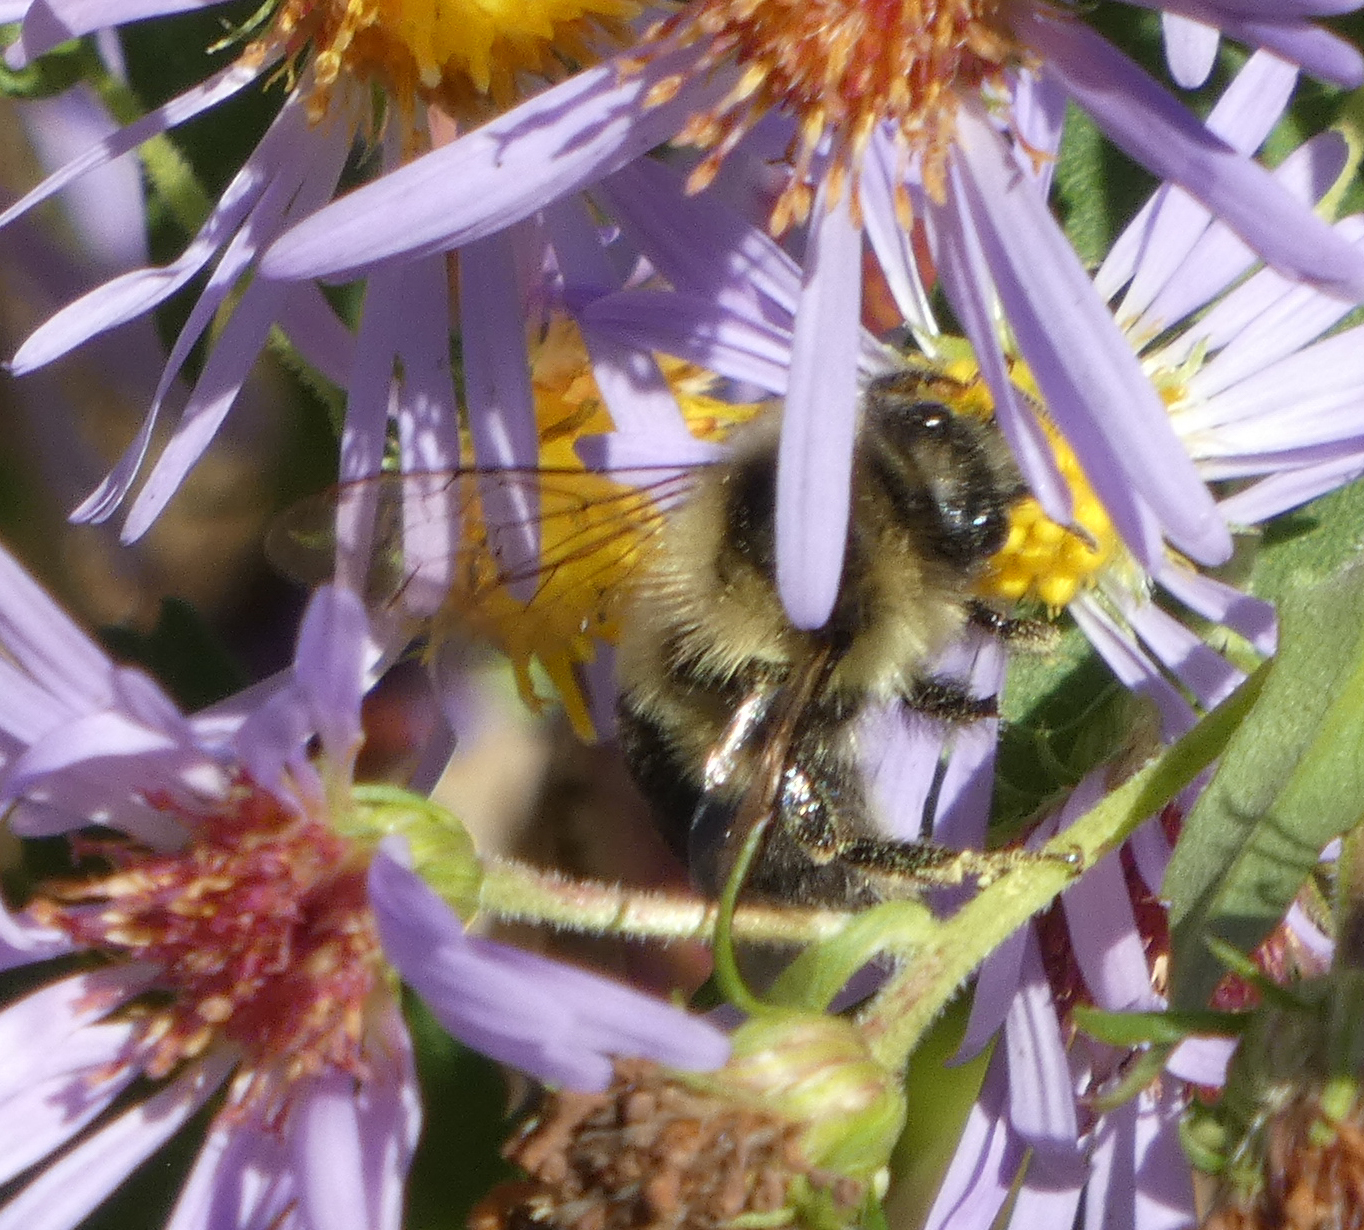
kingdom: Animalia
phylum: Arthropoda
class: Insecta
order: Hymenoptera
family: Apidae
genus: Bombus
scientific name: Bombus impatiens
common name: Common eastern bumble bee
